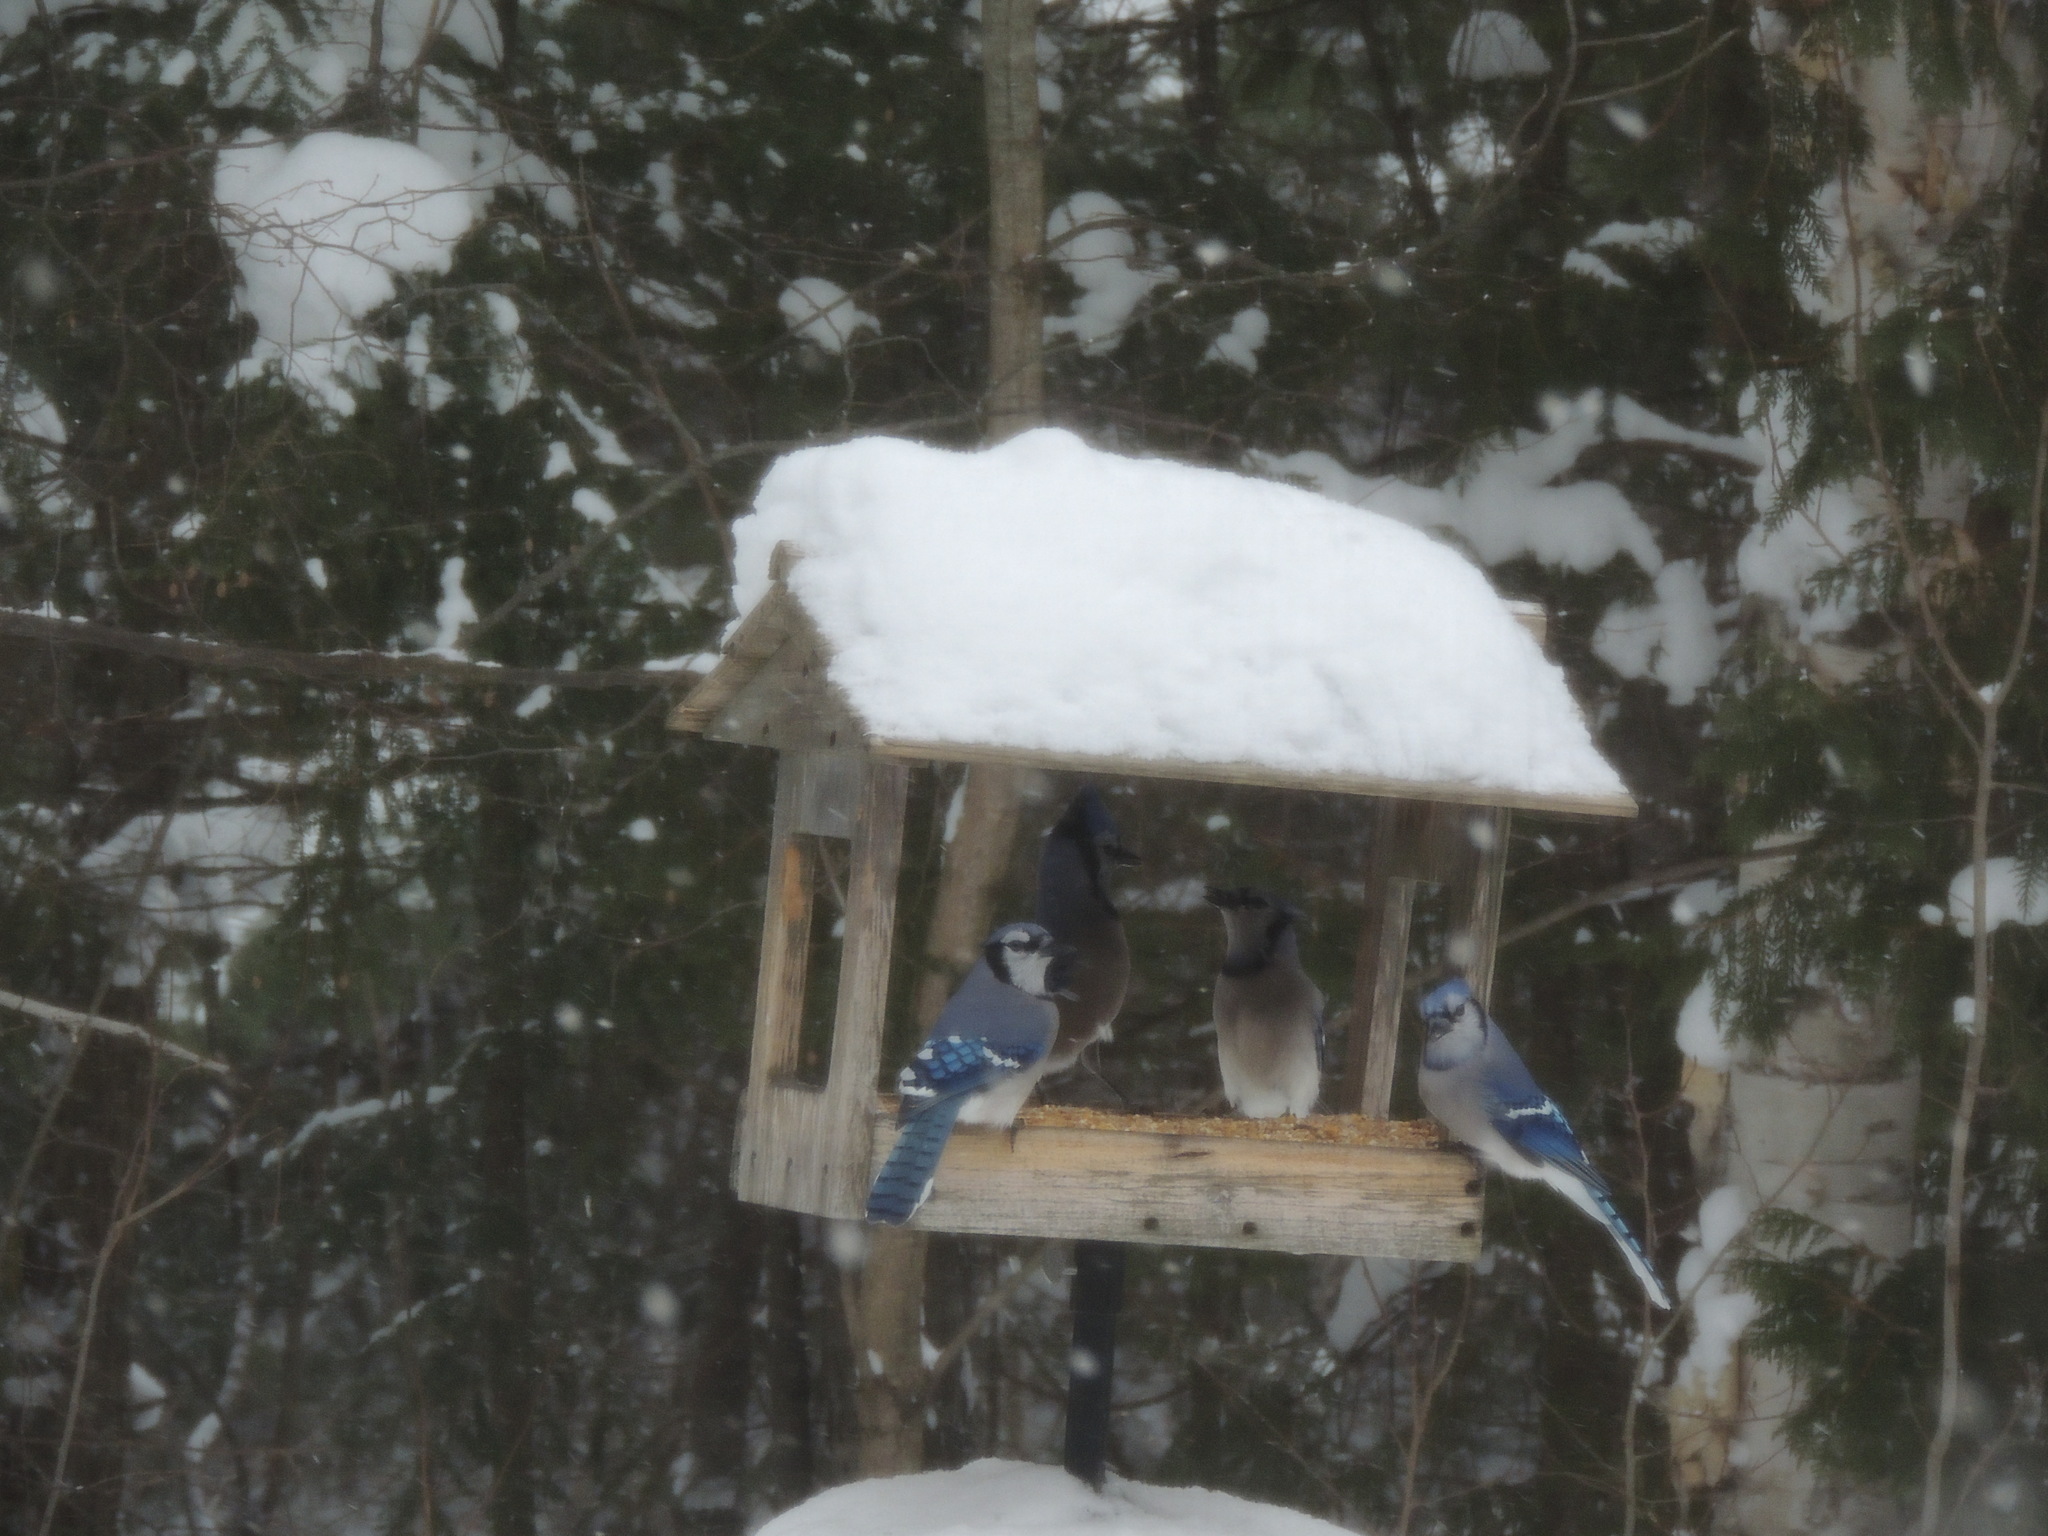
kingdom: Animalia
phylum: Chordata
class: Aves
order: Passeriformes
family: Corvidae
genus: Cyanocitta
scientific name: Cyanocitta cristata
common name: Blue jay
